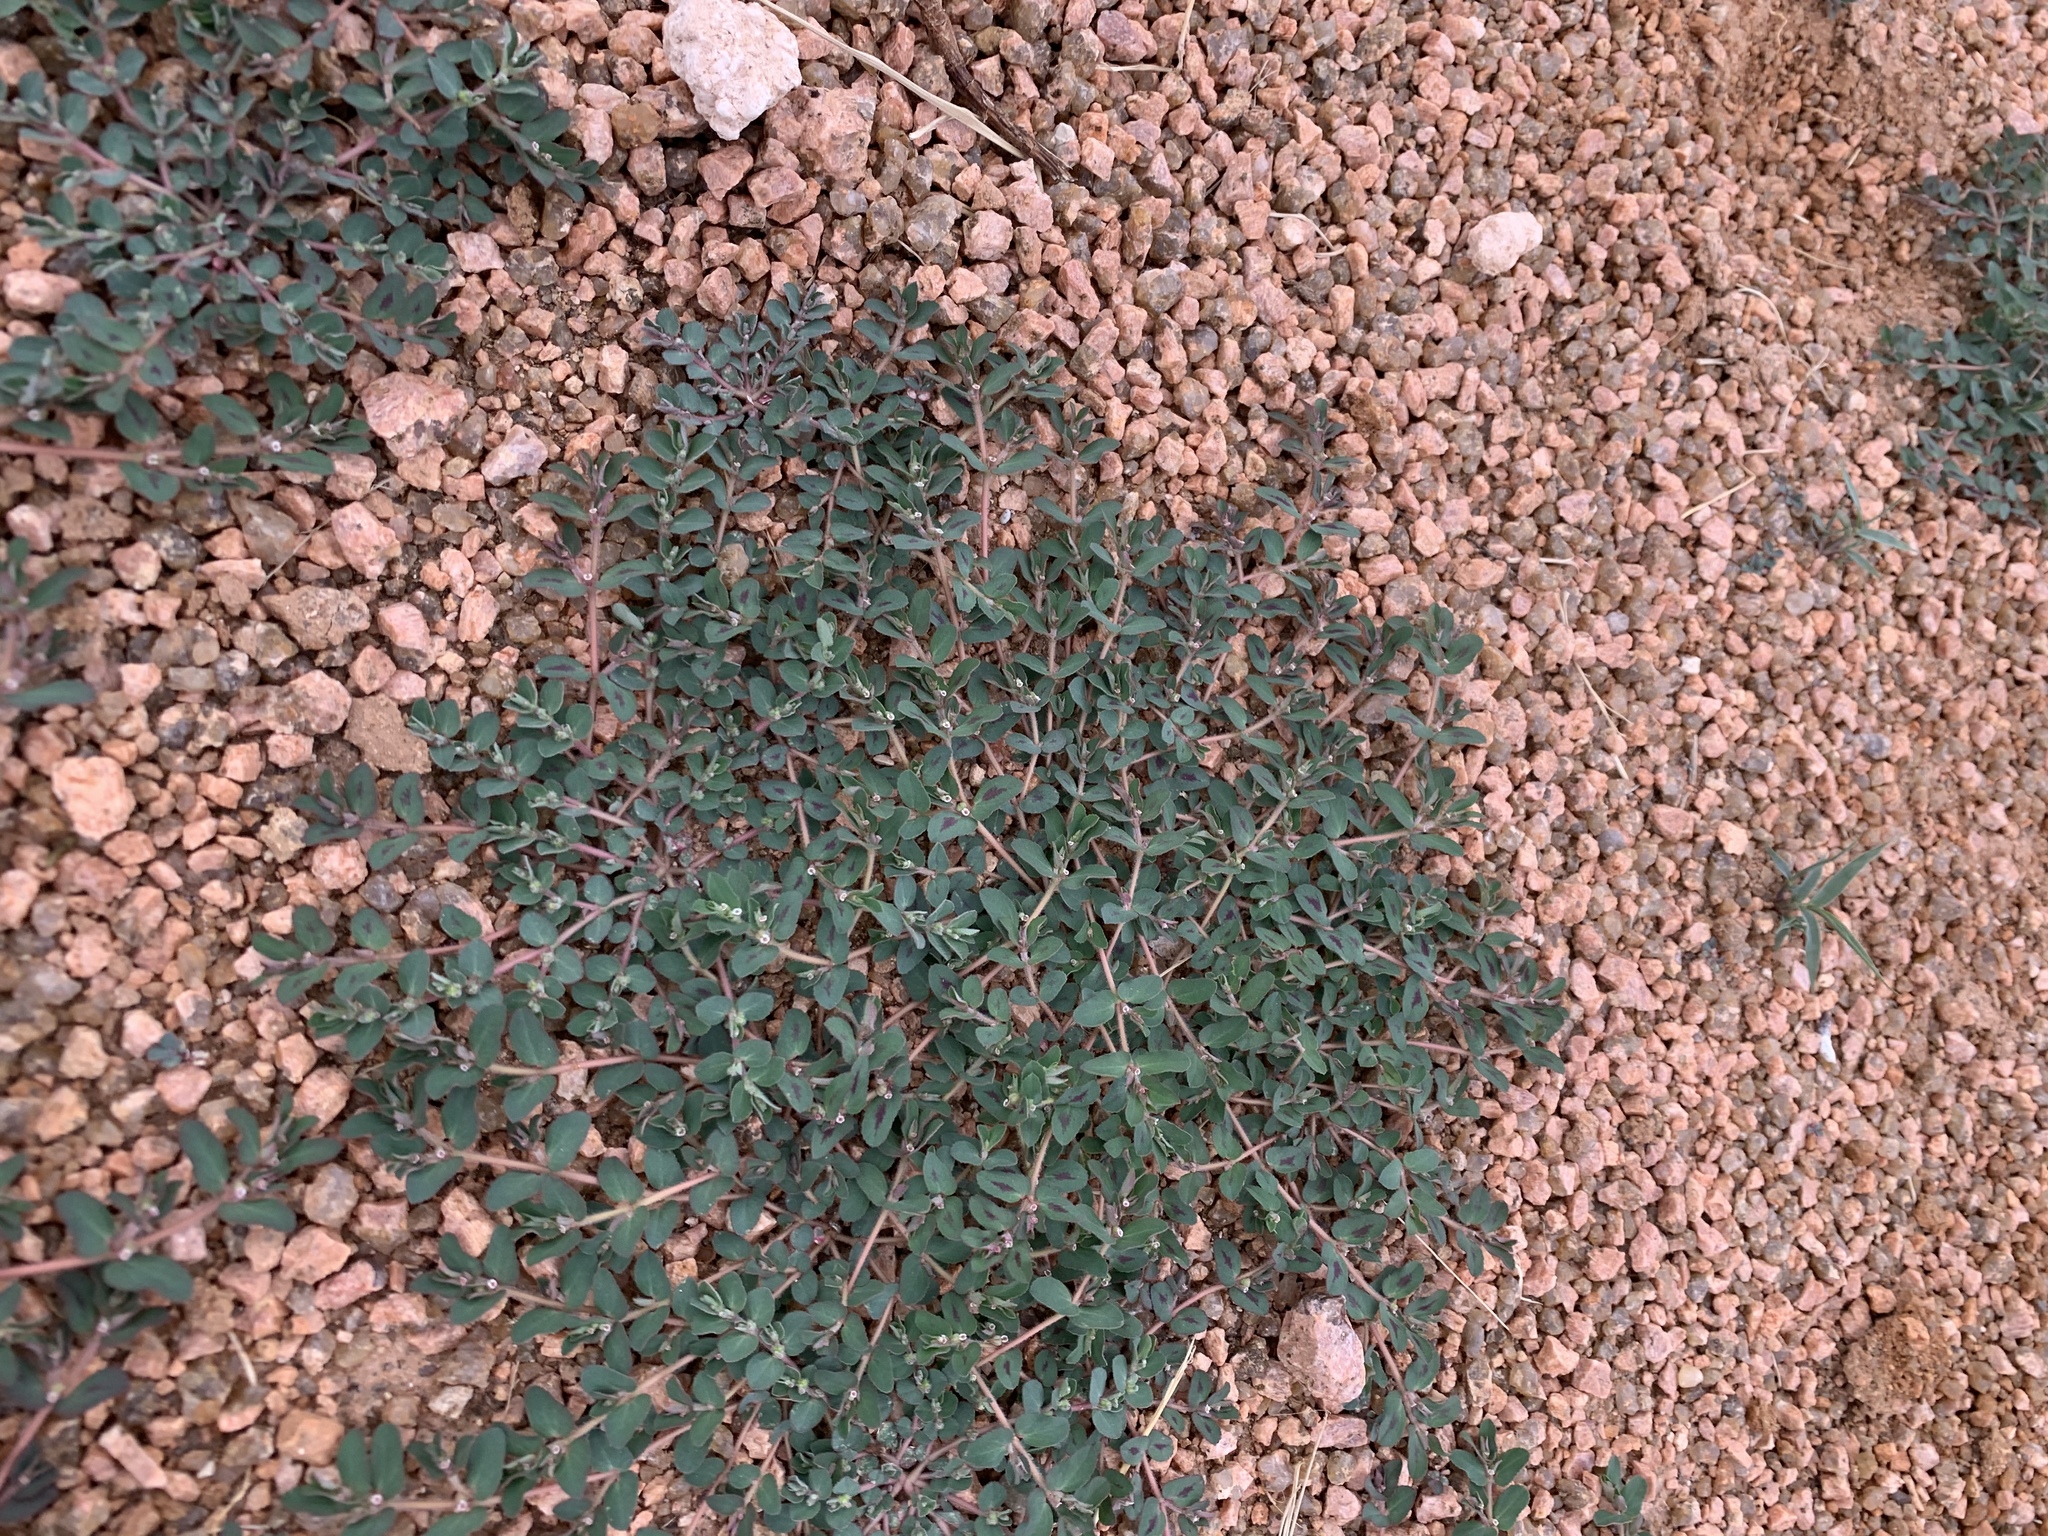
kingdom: Plantae
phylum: Tracheophyta
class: Magnoliopsida
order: Malpighiales
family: Euphorbiaceae
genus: Euphorbia
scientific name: Euphorbia maculata
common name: Spotted spurge
